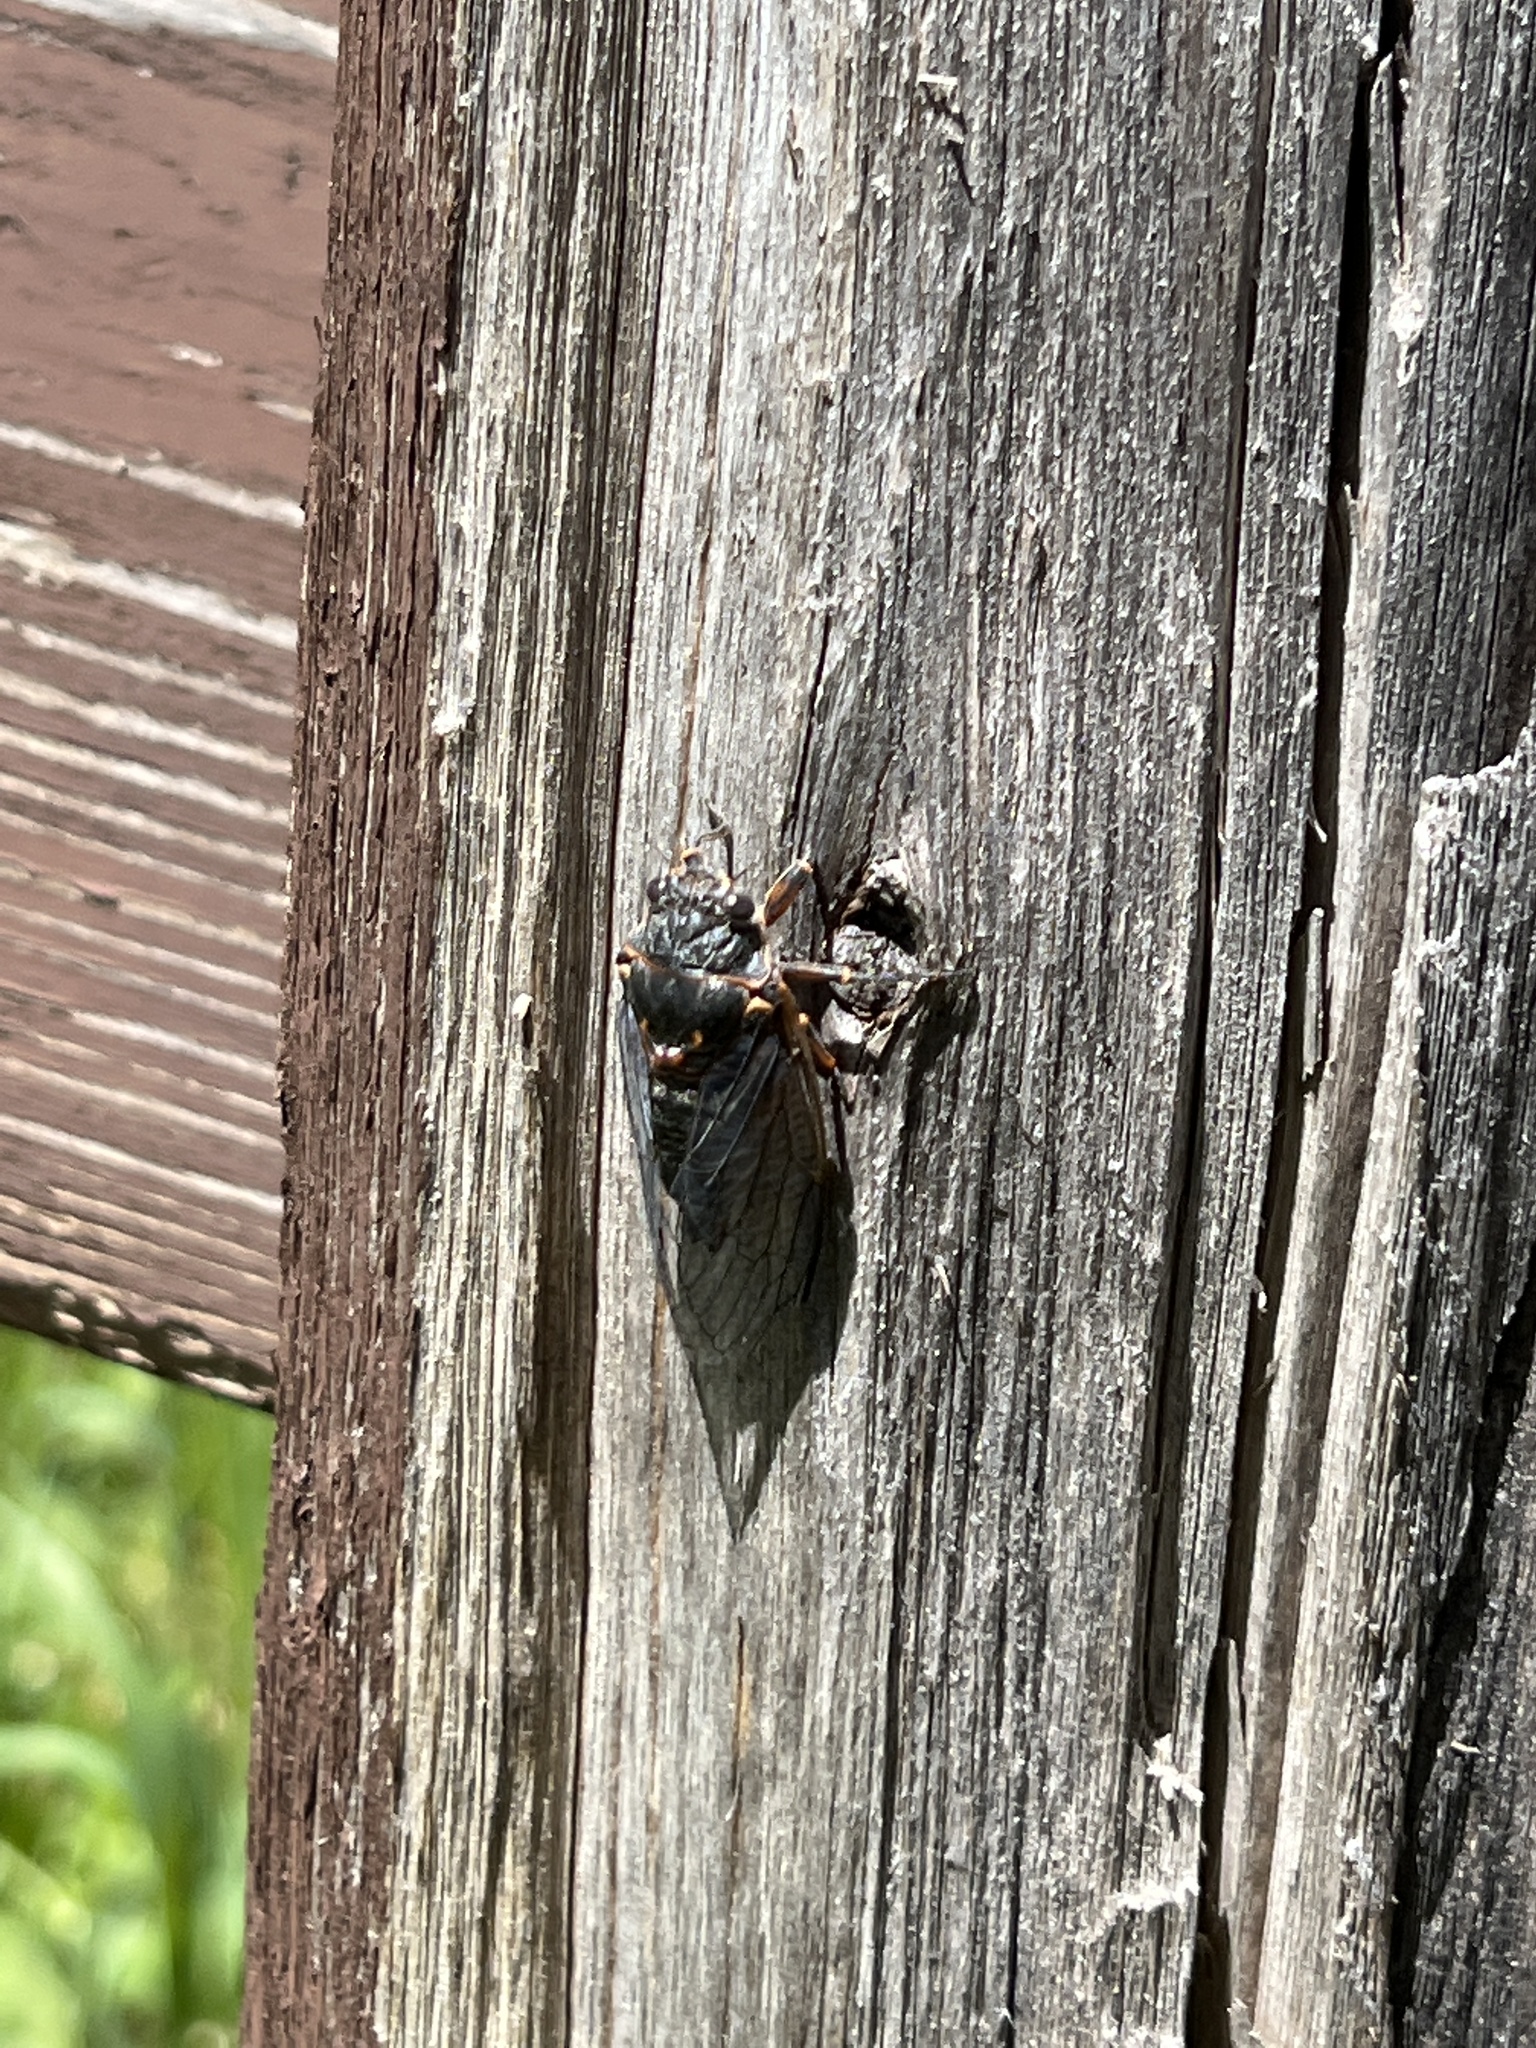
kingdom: Animalia
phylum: Arthropoda
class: Insecta
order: Hemiptera
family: Cicadidae
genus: Okanagana
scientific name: Okanagana occidentalis
